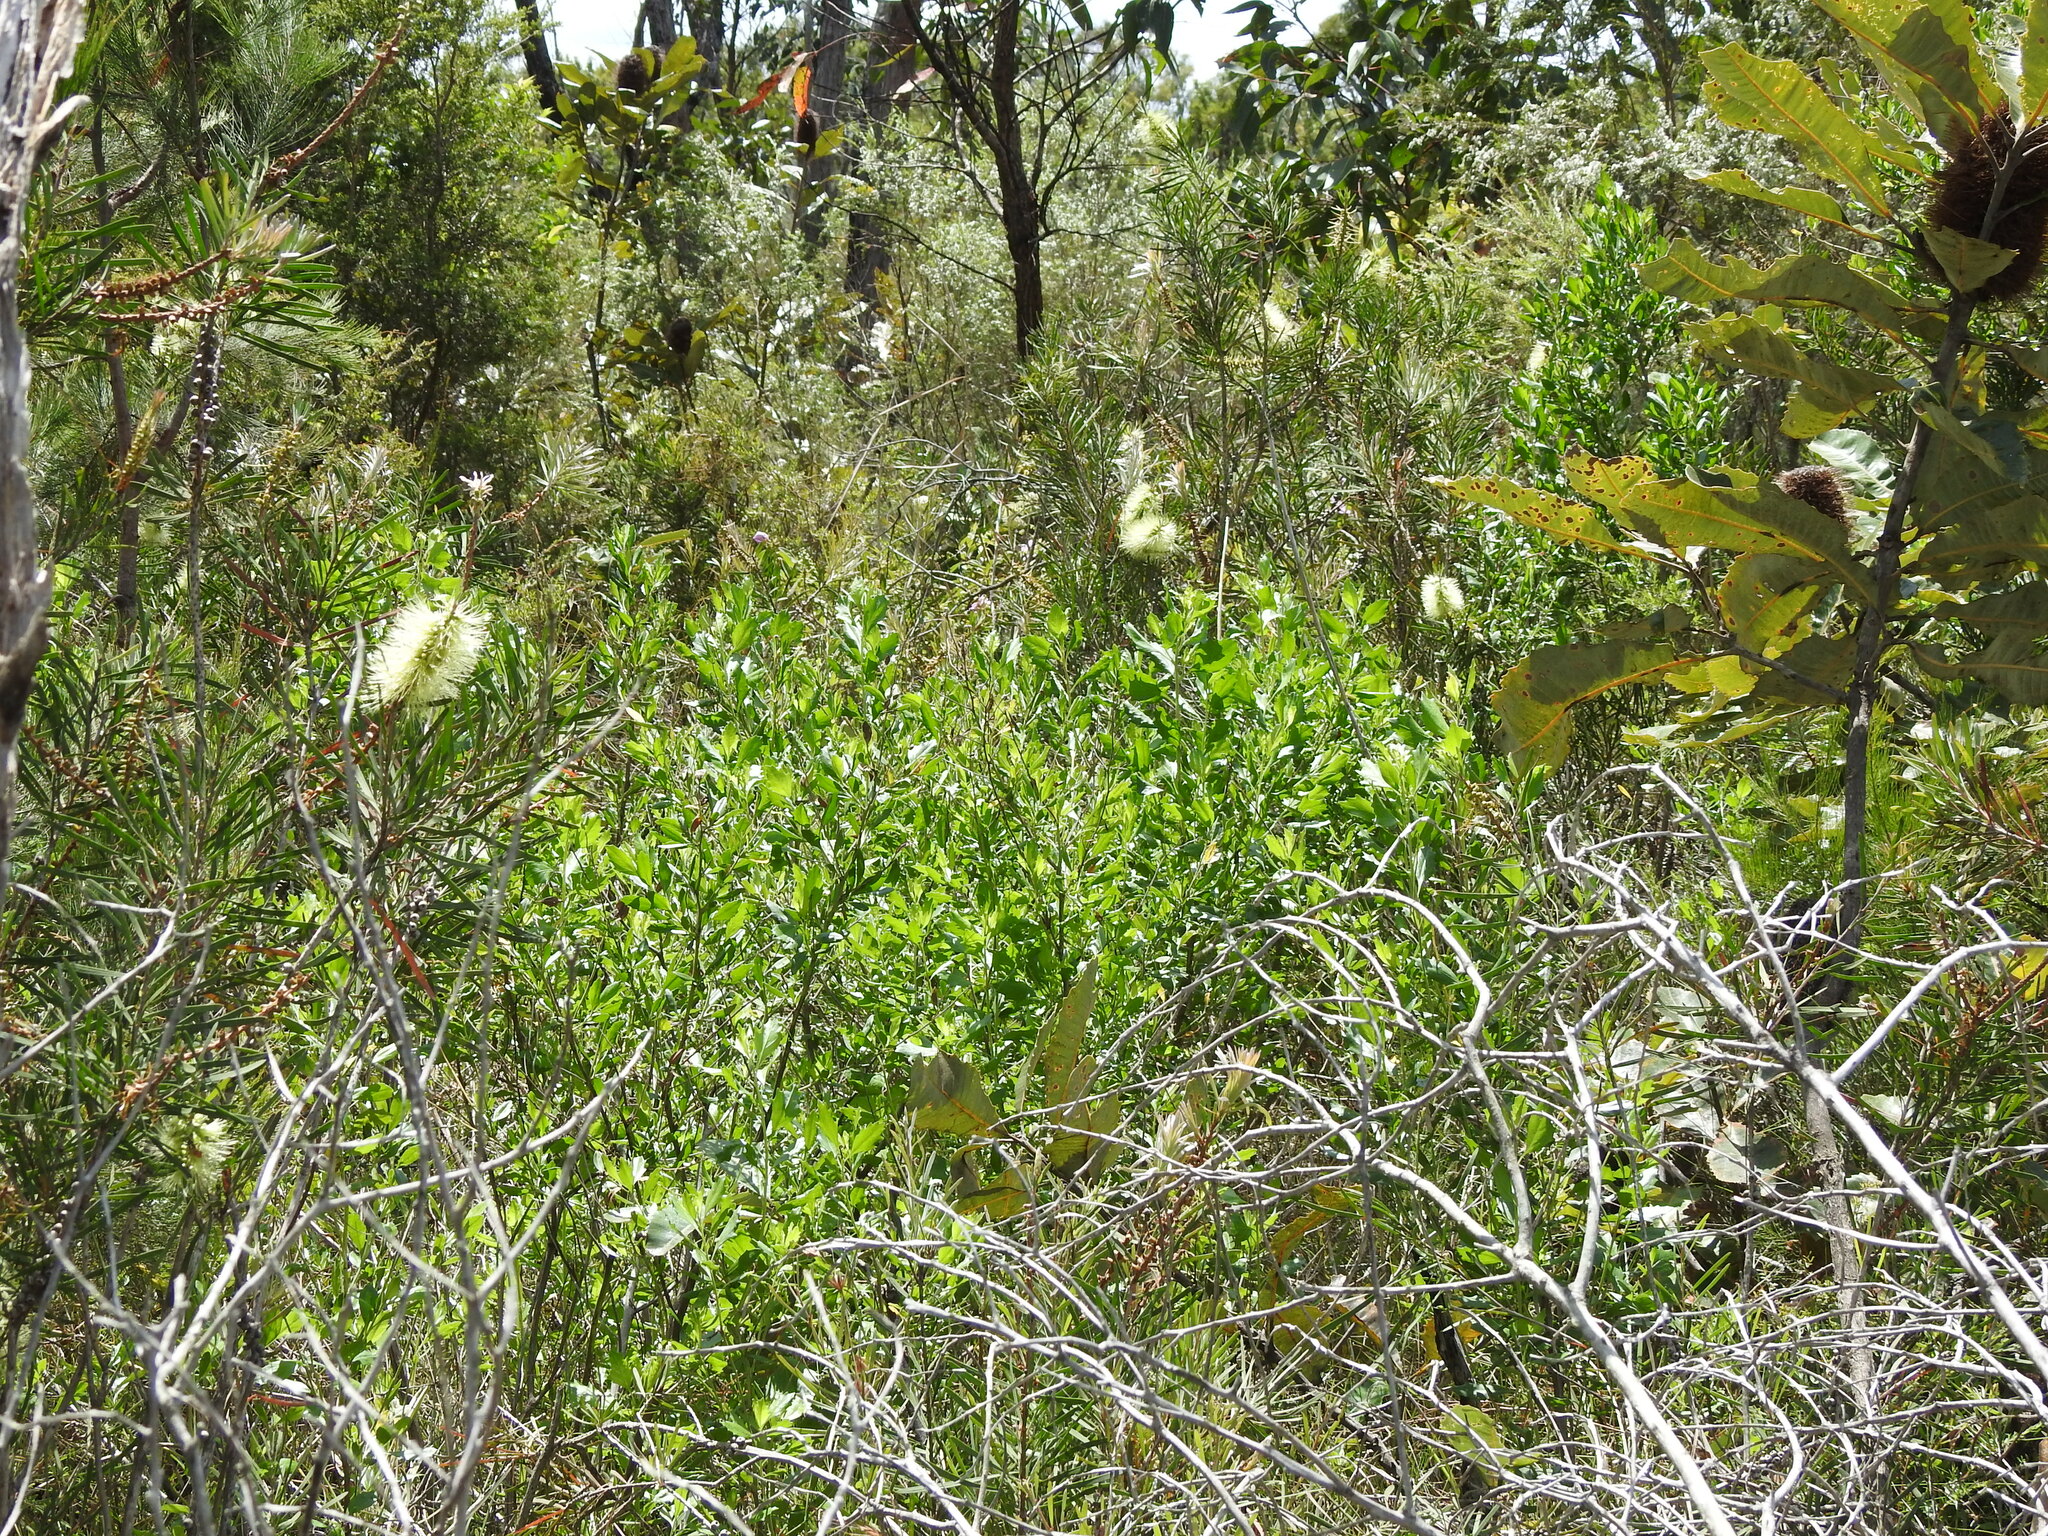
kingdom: Plantae
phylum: Tracheophyta
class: Magnoliopsida
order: Asterales
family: Asteraceae
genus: Baccharis
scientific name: Baccharis halimifolia
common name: Eastern baccharis
